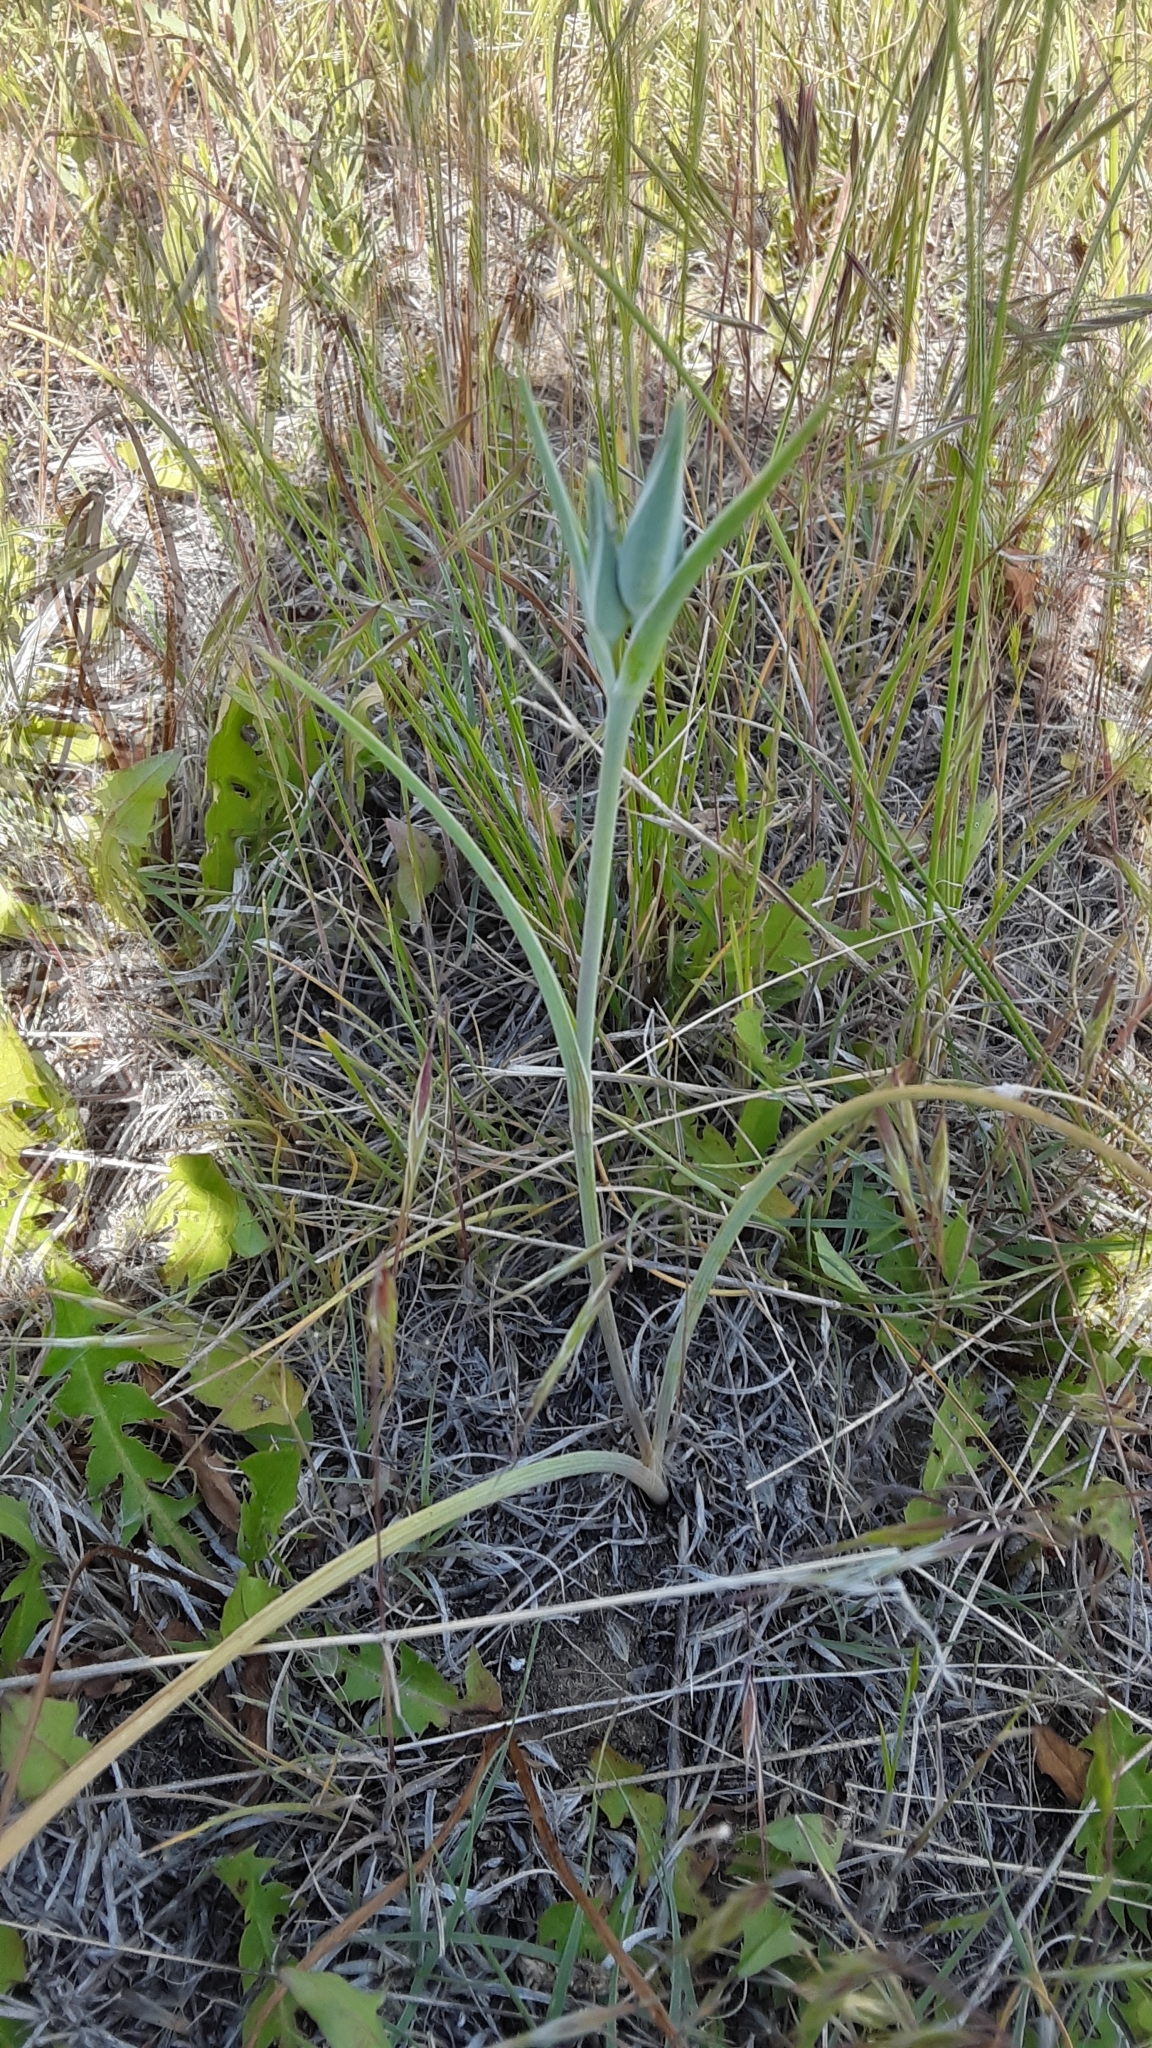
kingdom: Plantae
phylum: Tracheophyta
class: Liliopsida
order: Liliales
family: Liliaceae
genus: Calochortus
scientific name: Calochortus nuttallii
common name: Sego-lily
